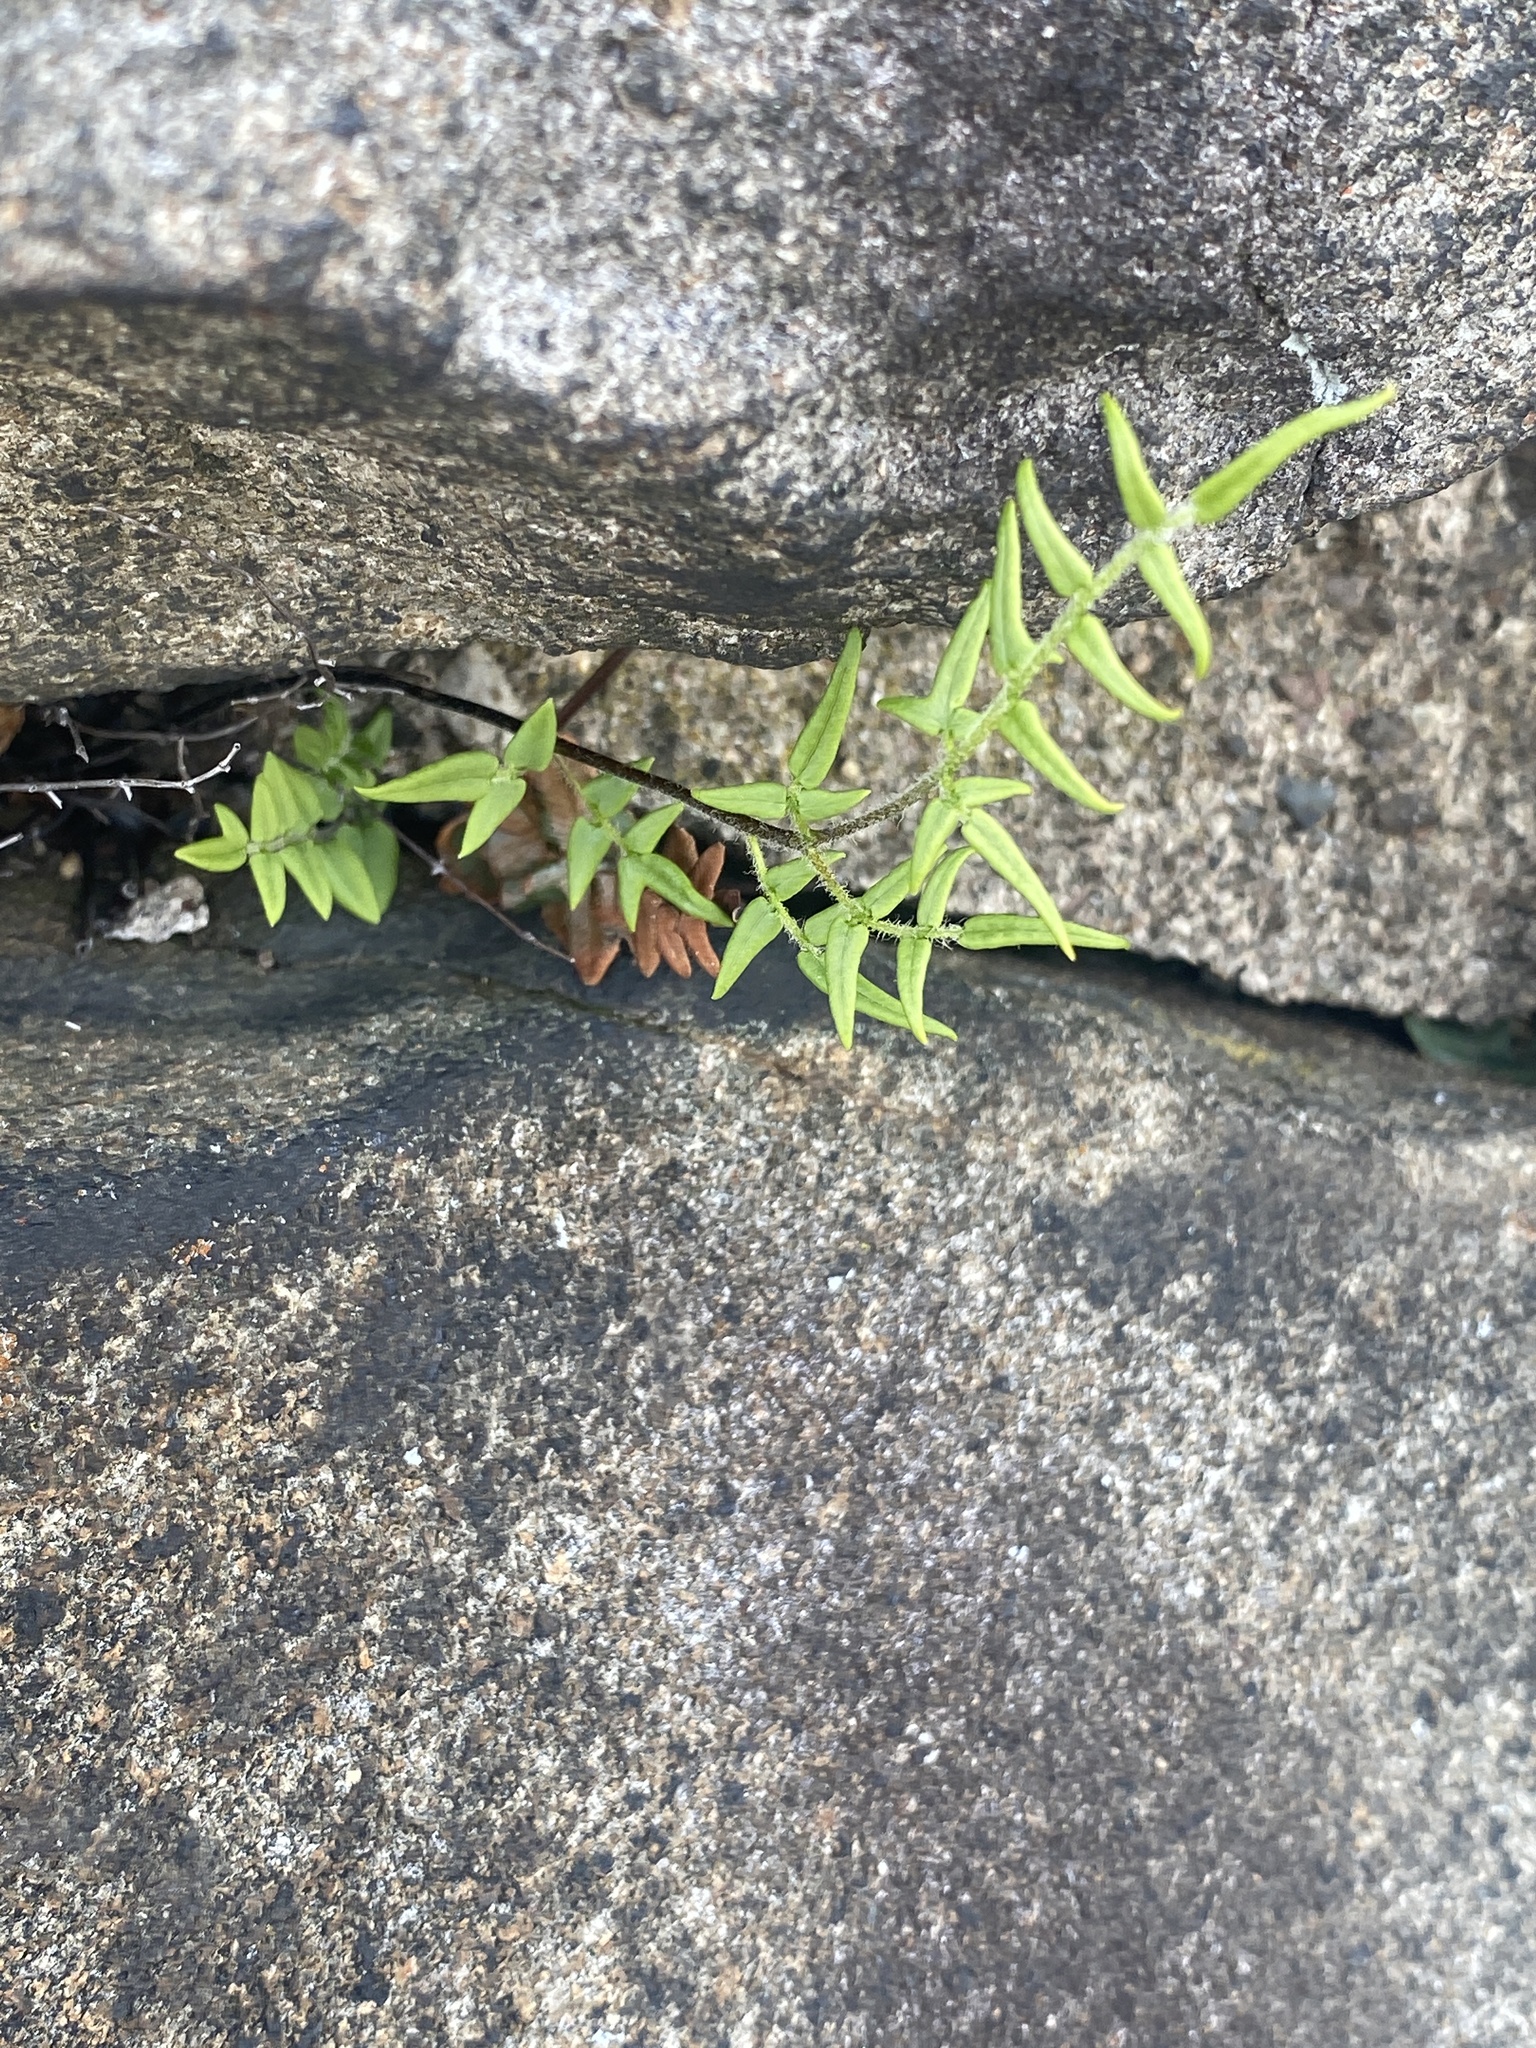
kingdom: Plantae
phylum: Tracheophyta
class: Polypodiopsida
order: Polypodiales
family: Pteridaceae
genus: Pellaea
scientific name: Pellaea atropurpurea
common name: Hairy cliffbrake
